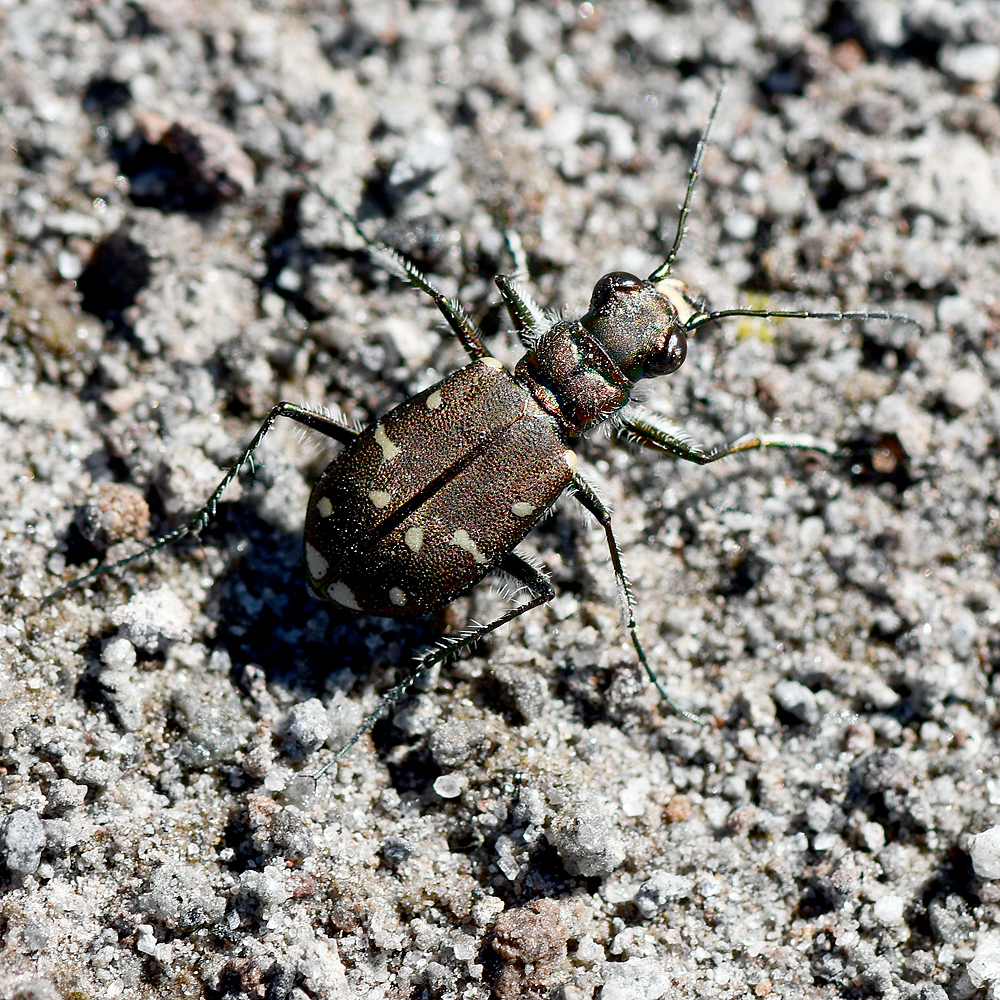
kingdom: Animalia
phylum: Arthropoda
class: Insecta
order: Coleoptera
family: Carabidae
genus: Cicindela
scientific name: Cicindela oregona
